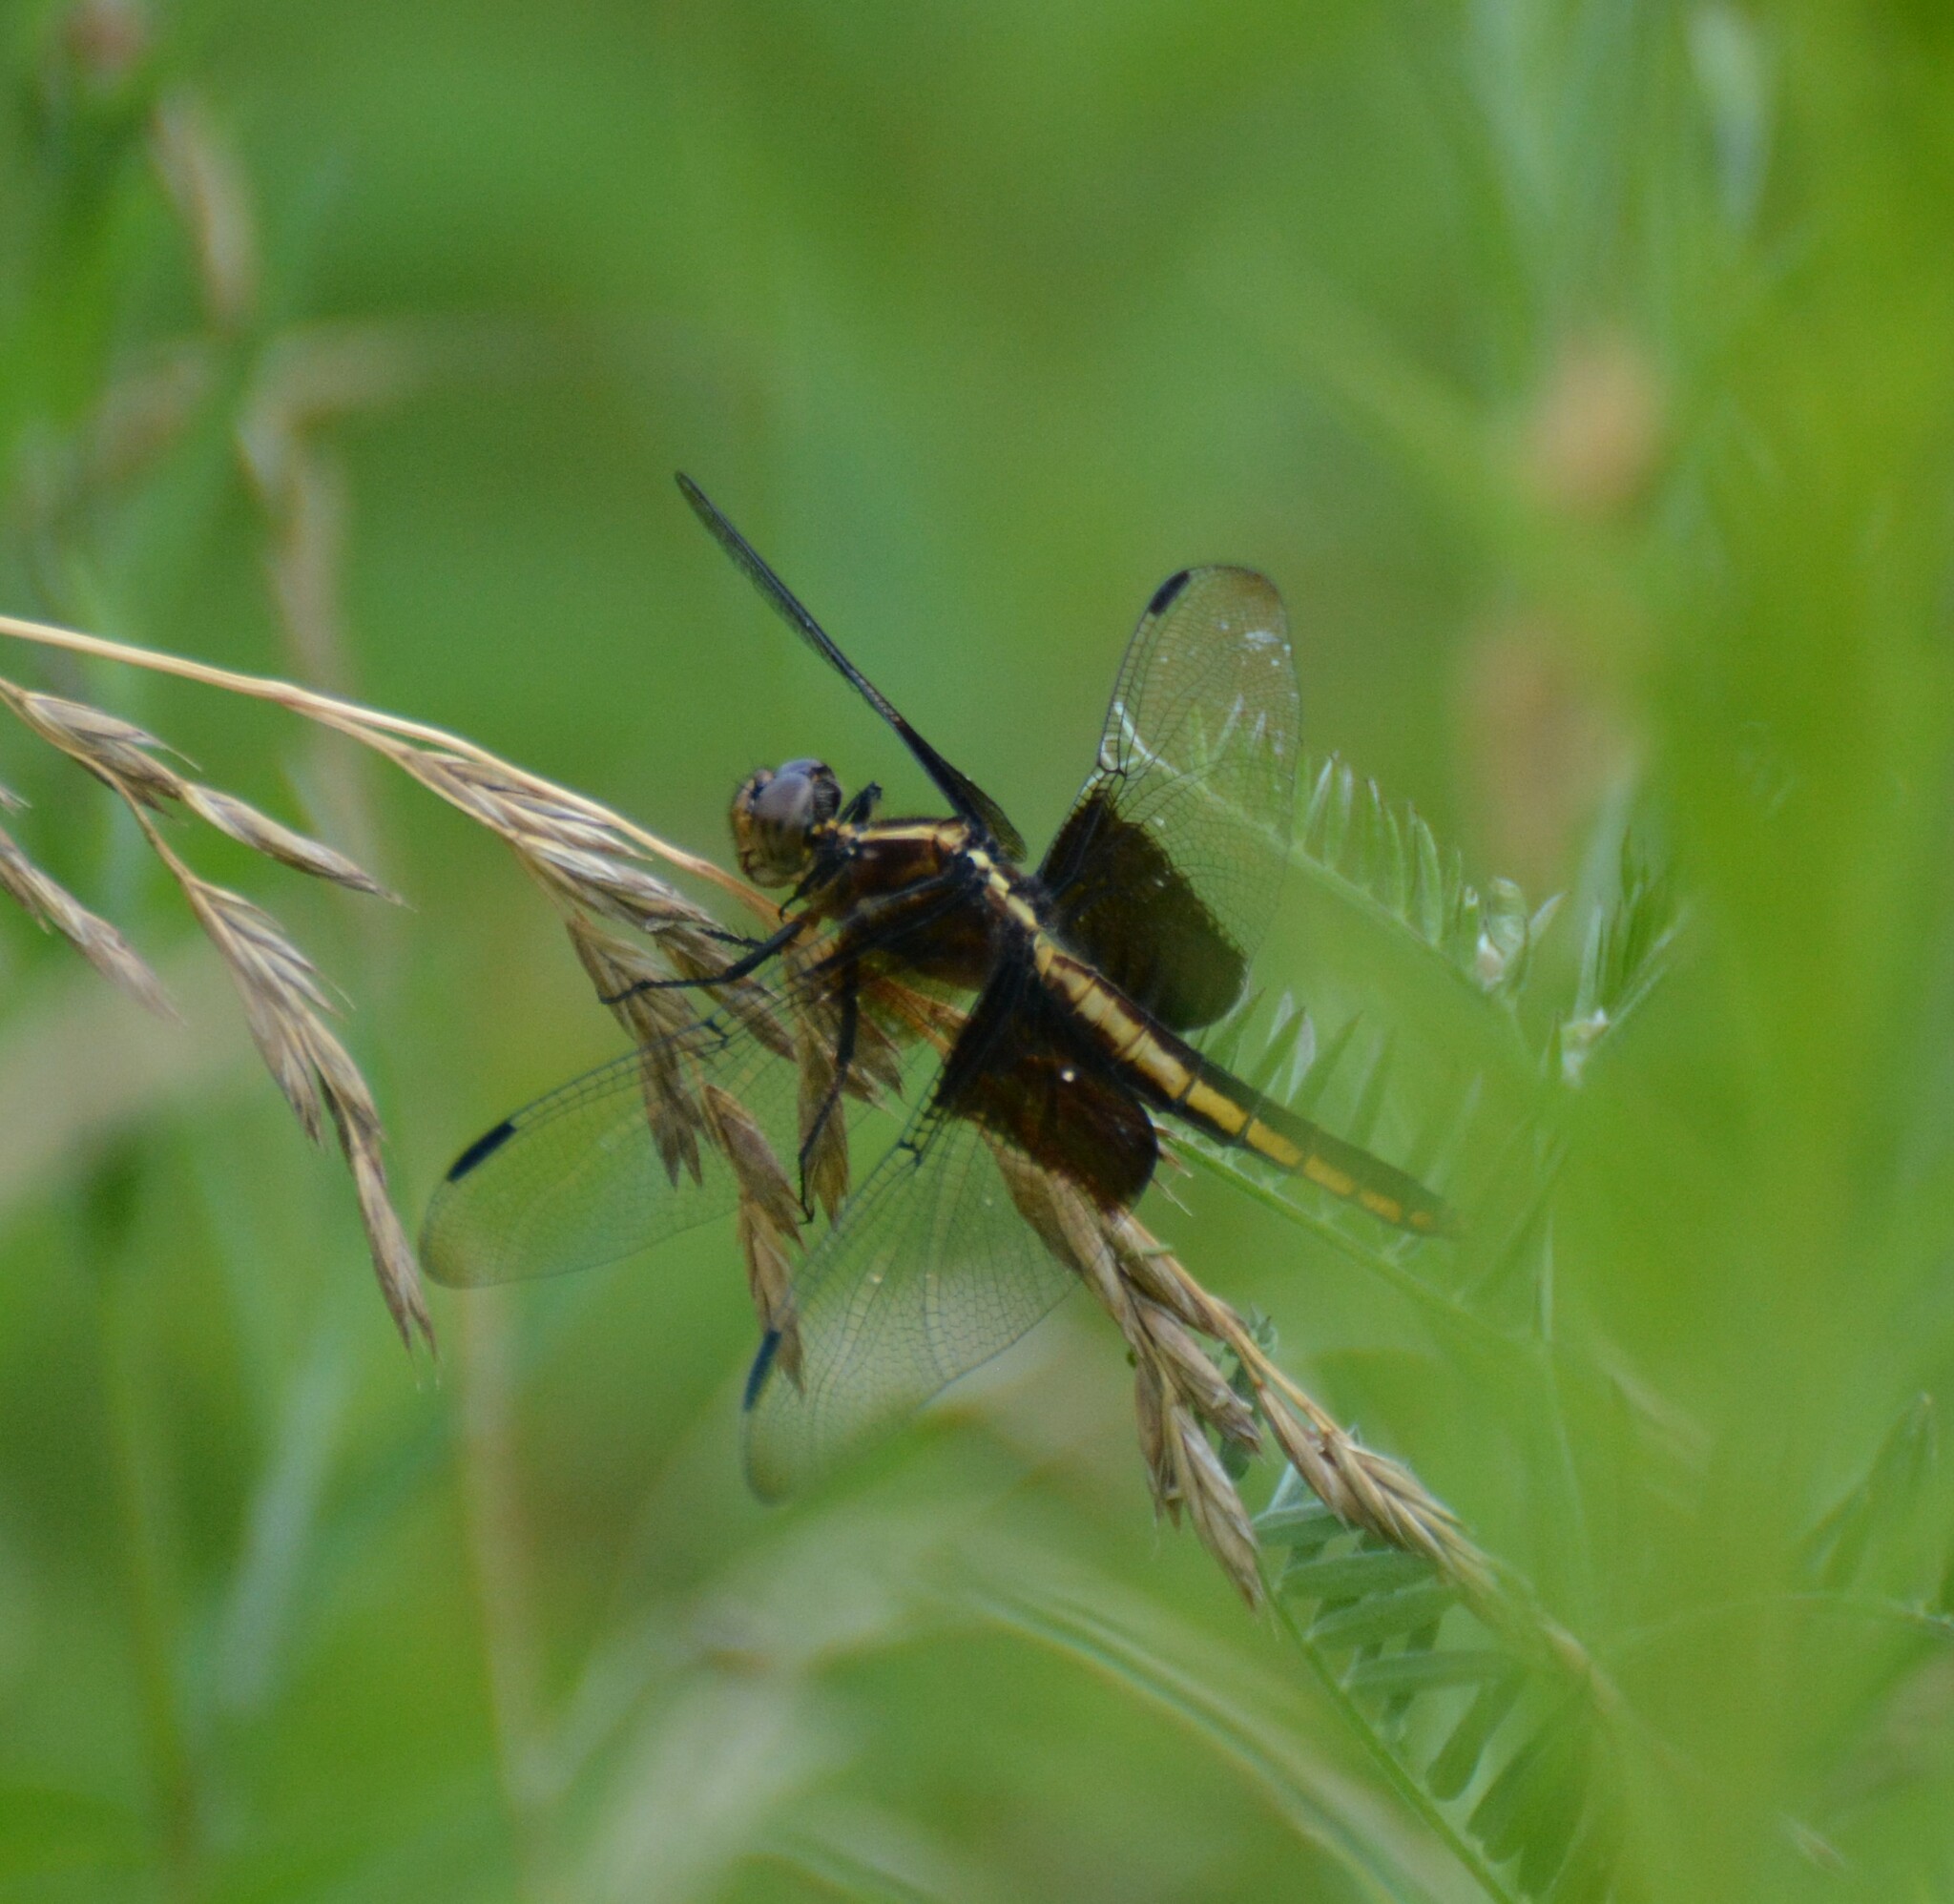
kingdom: Animalia
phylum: Arthropoda
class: Insecta
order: Odonata
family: Libellulidae
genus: Libellula
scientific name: Libellula luctuosa
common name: Widow skimmer
